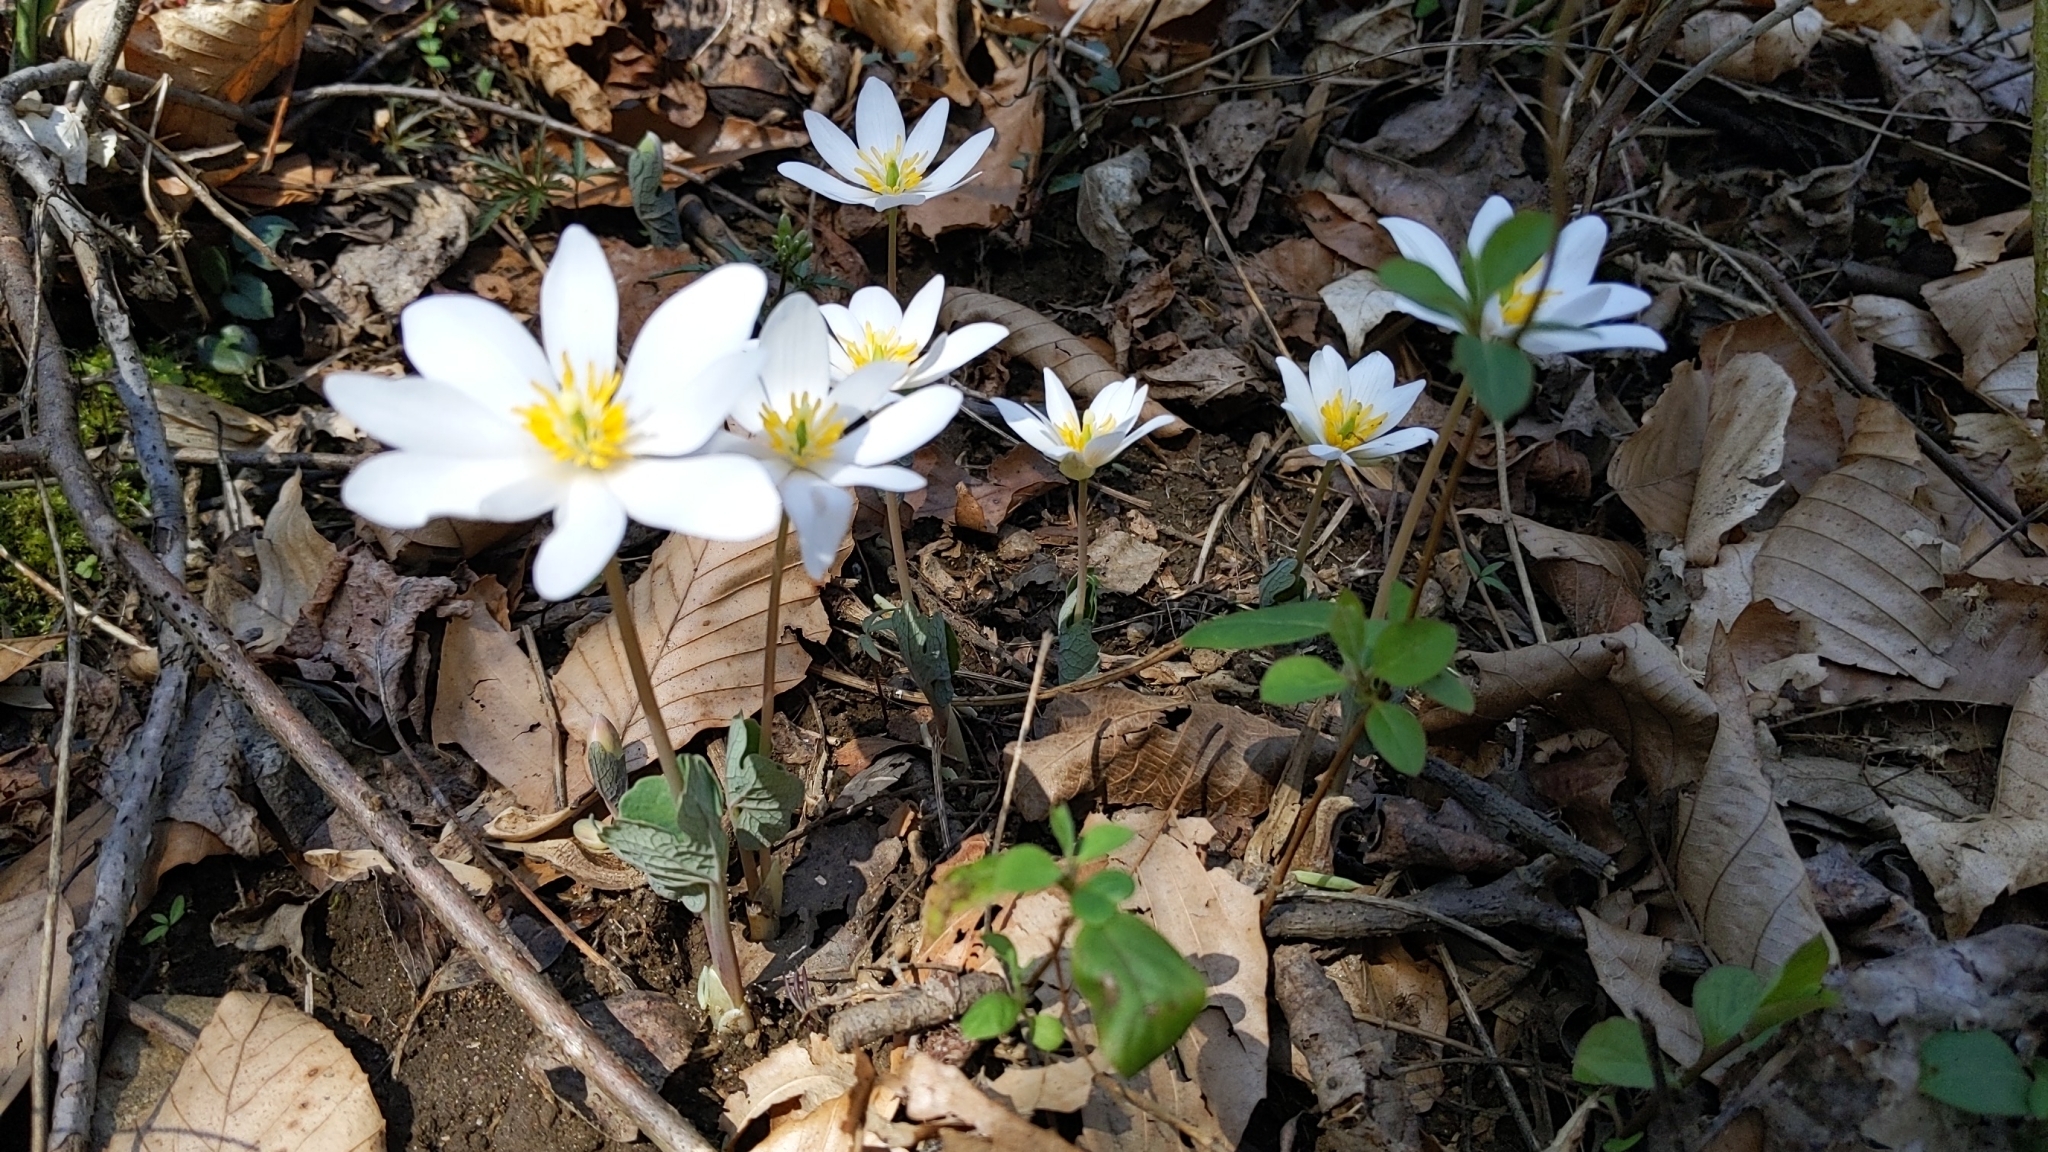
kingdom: Plantae
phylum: Tracheophyta
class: Magnoliopsida
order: Ranunculales
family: Papaveraceae
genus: Sanguinaria
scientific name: Sanguinaria canadensis
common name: Bloodroot
